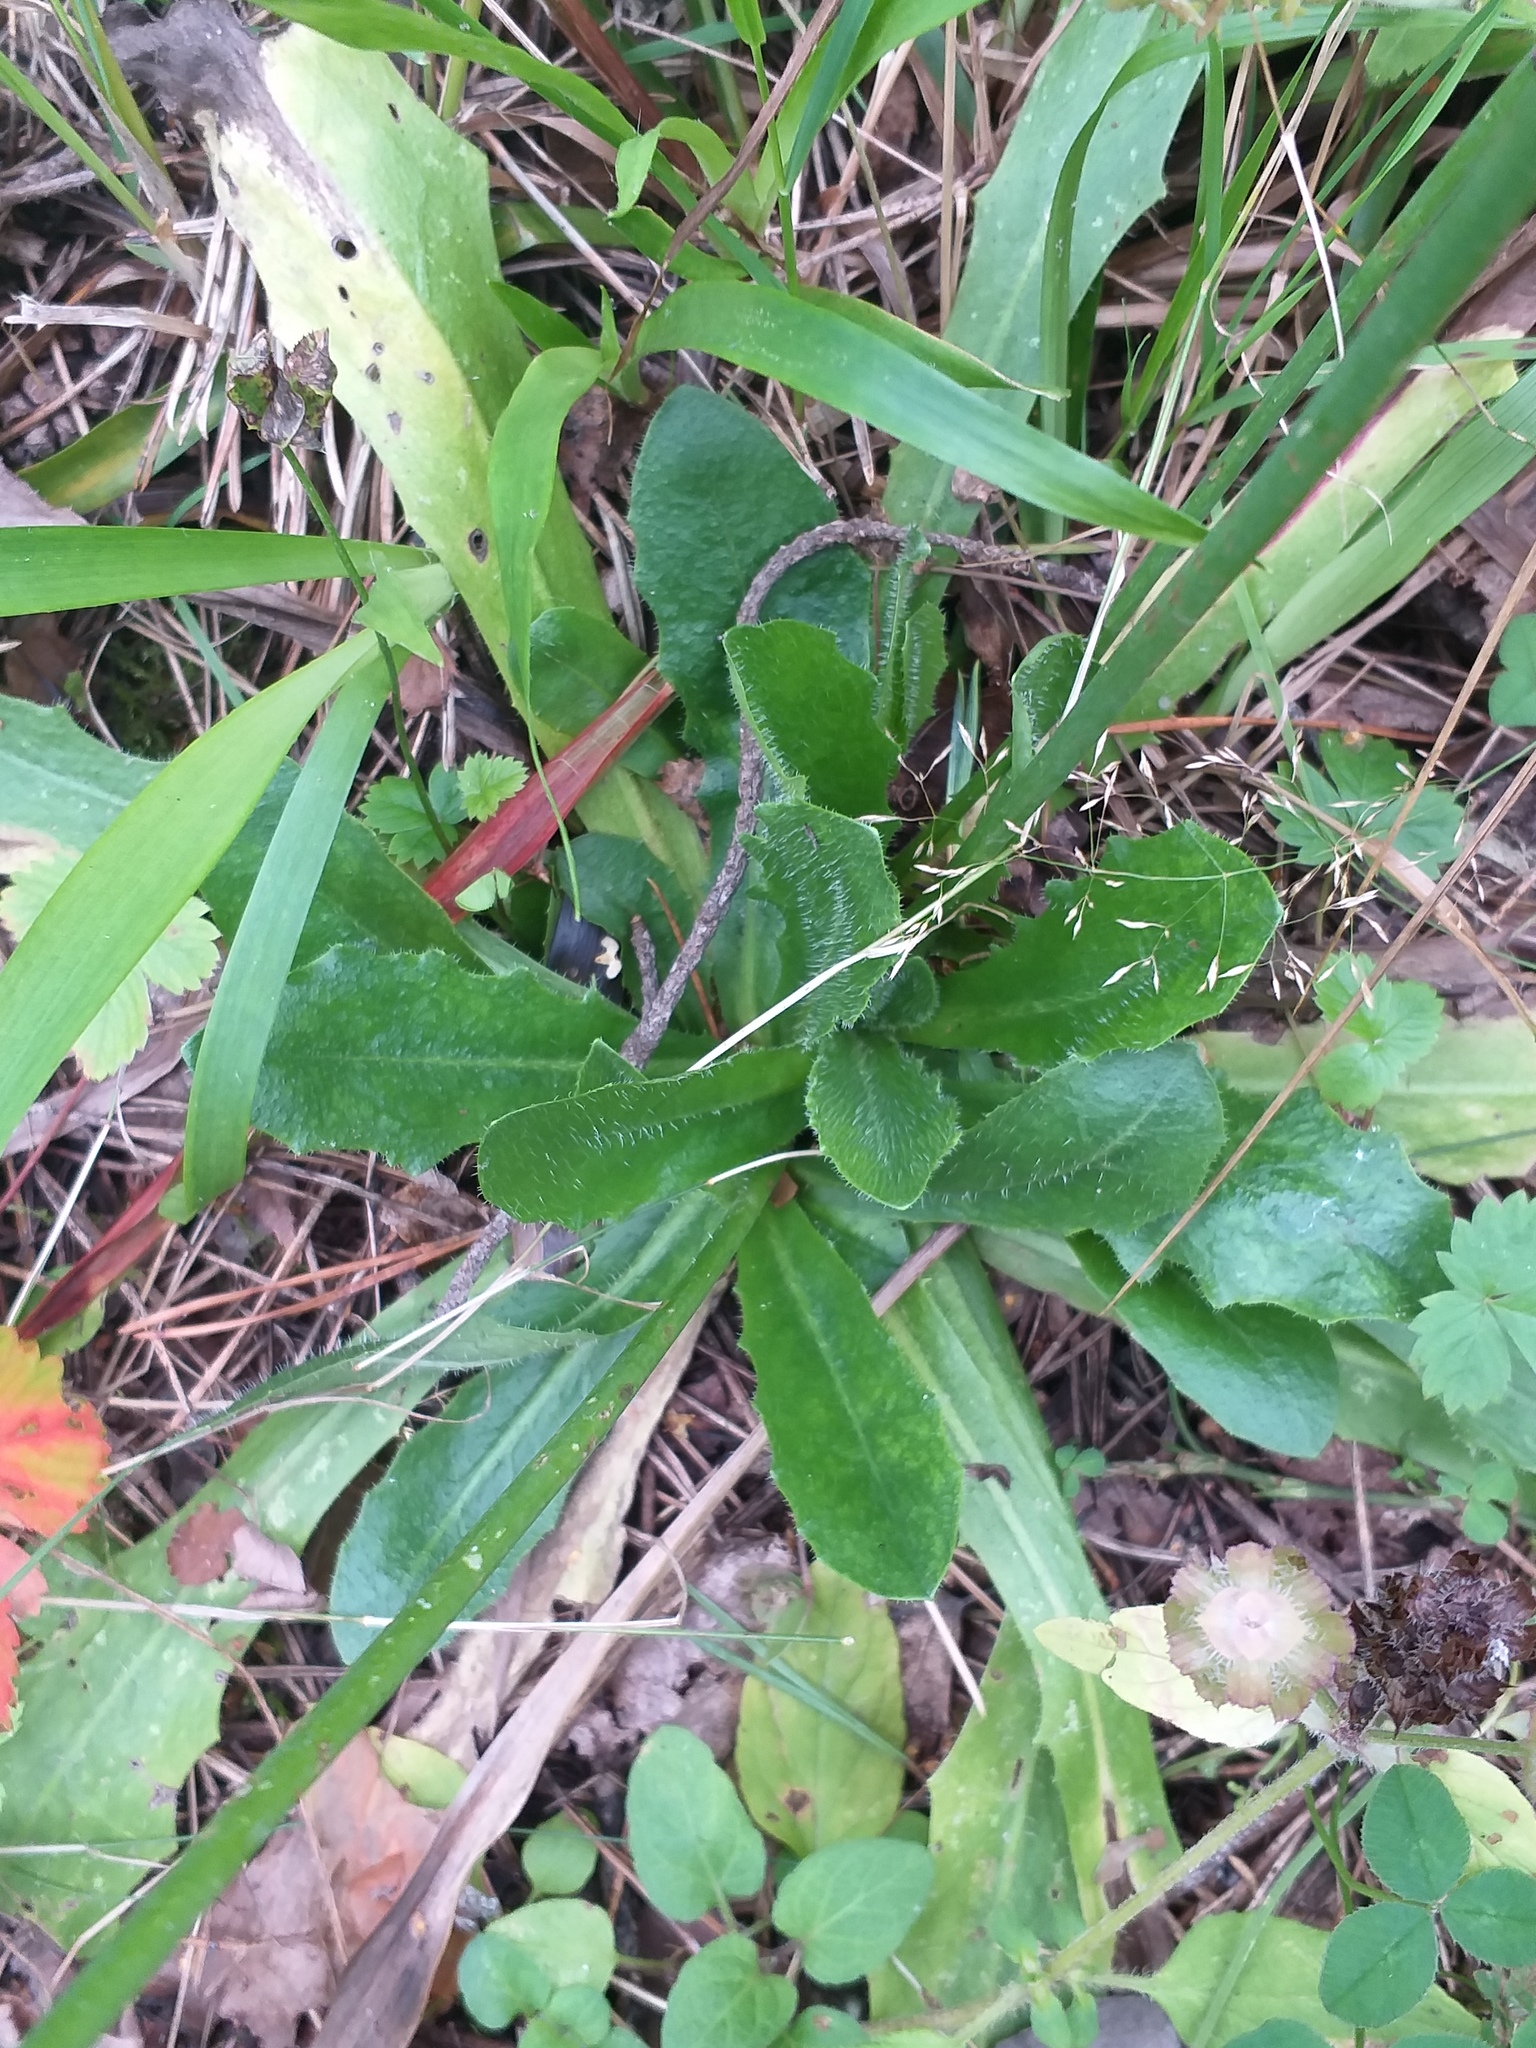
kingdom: Plantae
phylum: Tracheophyta
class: Magnoliopsida
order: Asterales
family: Asteraceae
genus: Hypochaeris
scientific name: Hypochaeris radicata
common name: Flatweed
